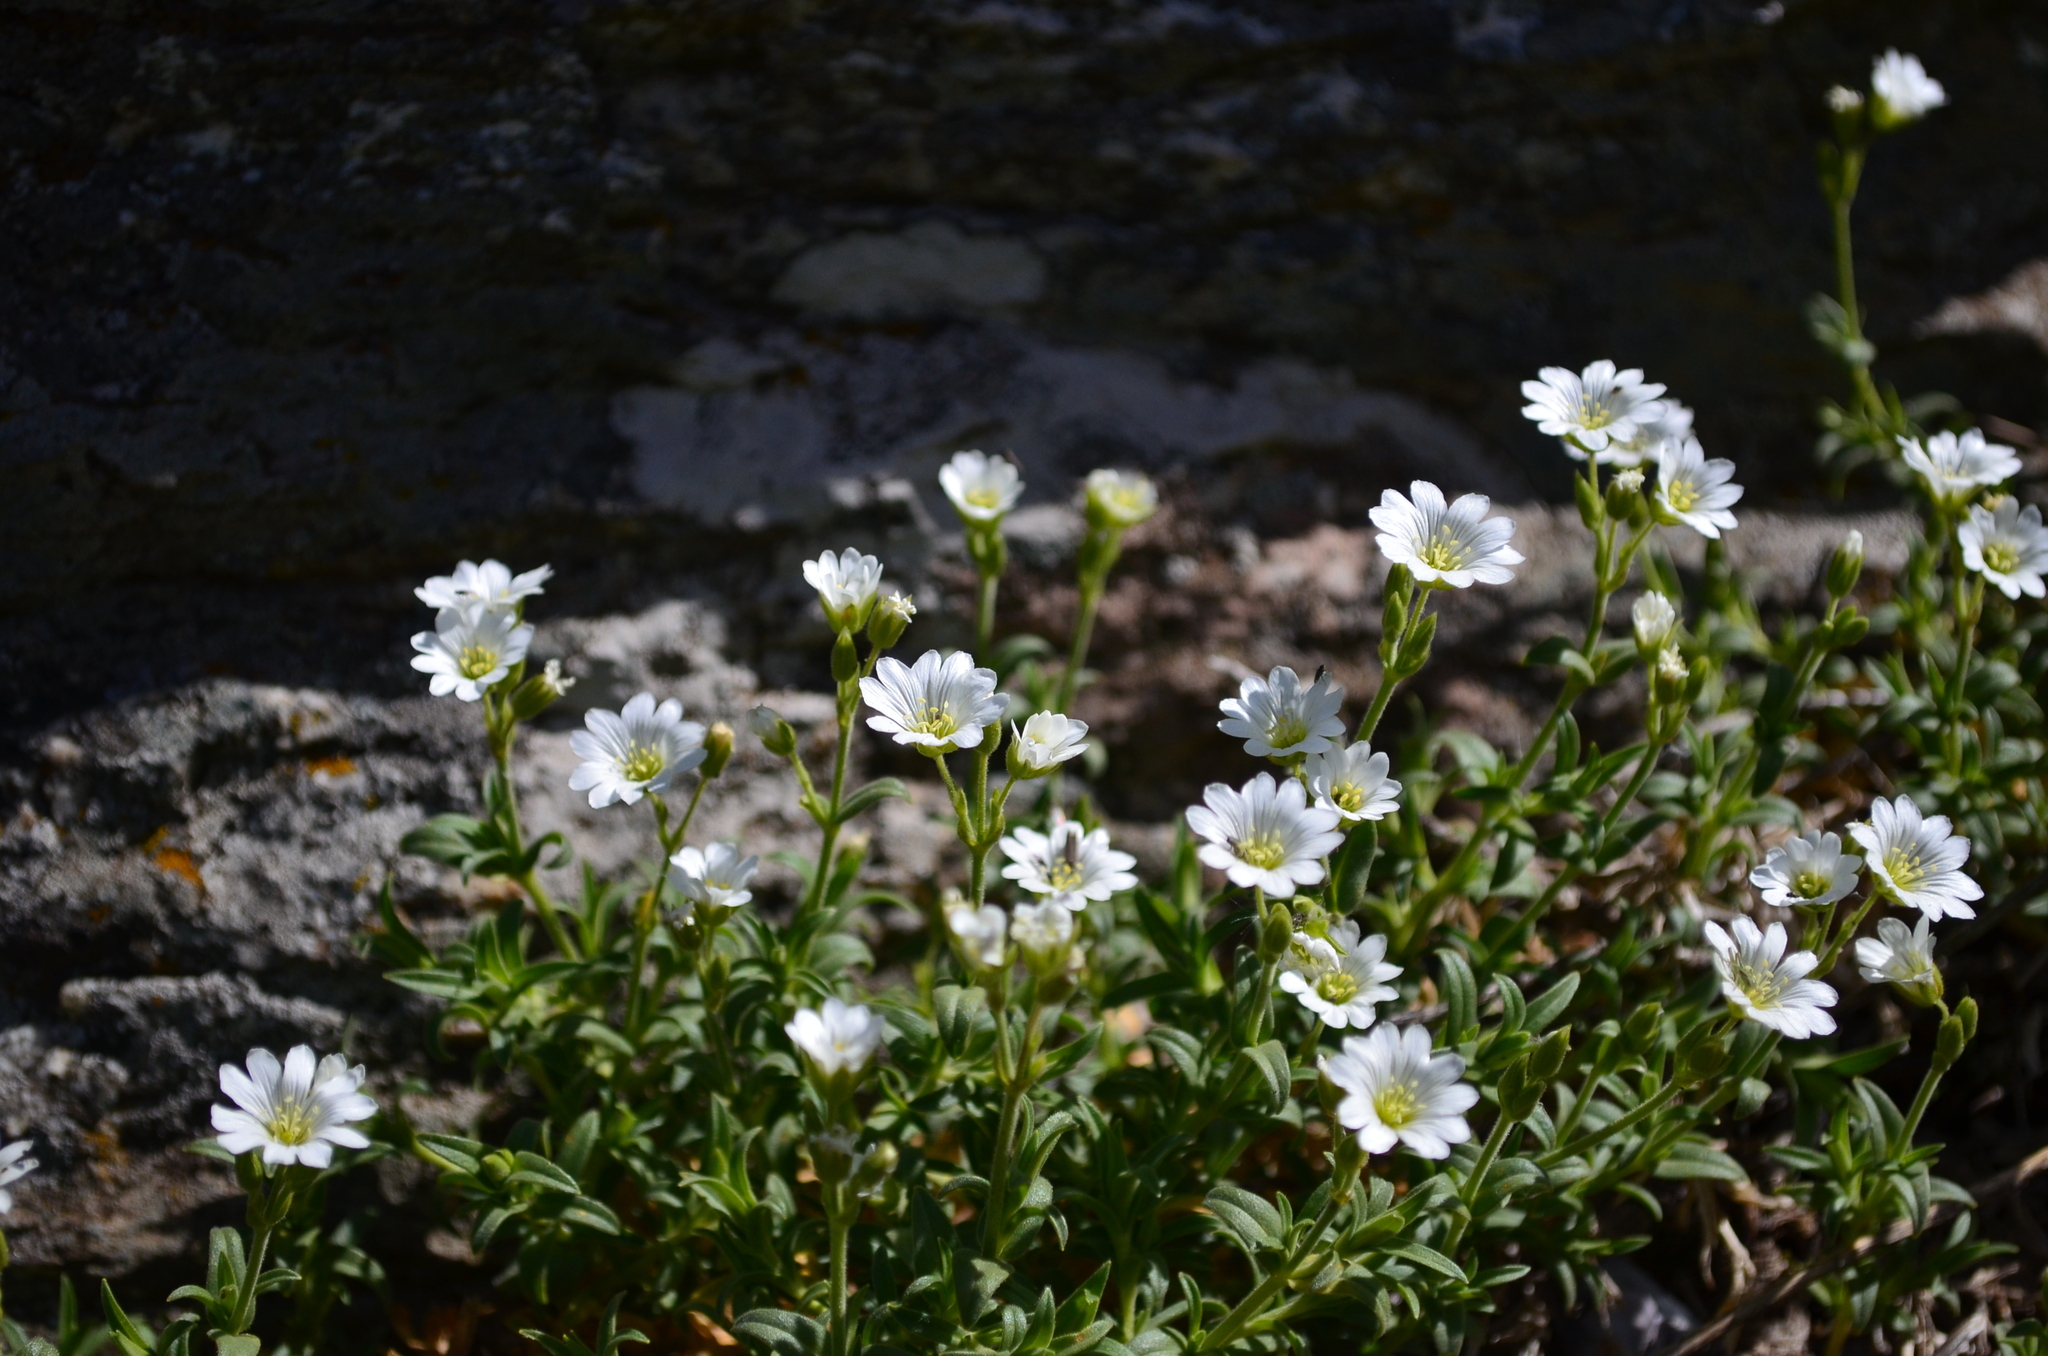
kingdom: Plantae
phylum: Tracheophyta
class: Magnoliopsida
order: Caryophyllales
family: Caryophyllaceae
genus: Cerastium
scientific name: Cerastium arvense
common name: Field mouse-ear
